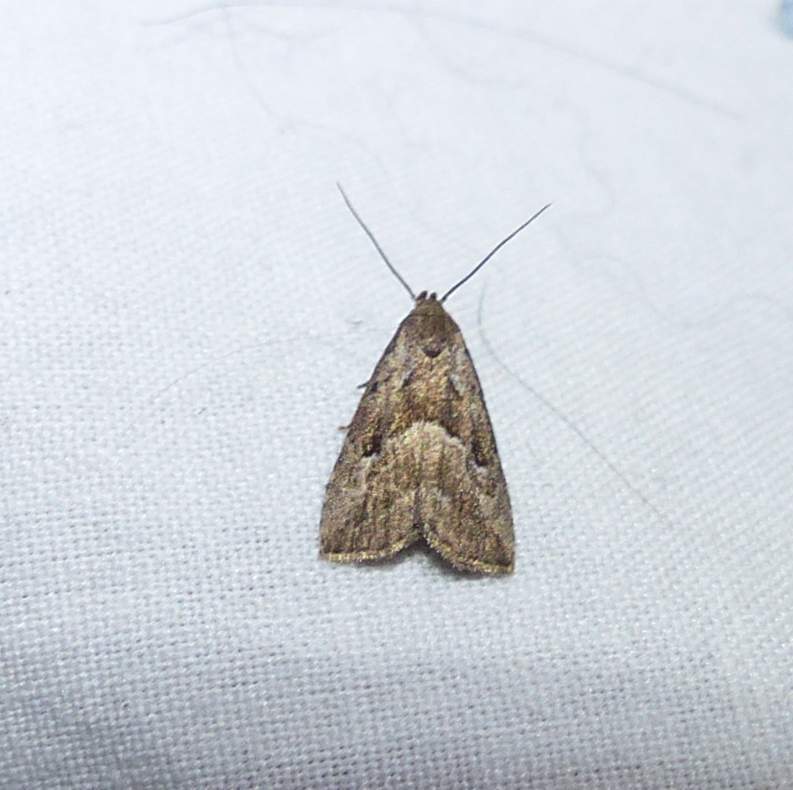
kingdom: Animalia
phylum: Arthropoda
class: Insecta
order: Lepidoptera
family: Erebidae
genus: Hypenodes
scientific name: Hypenodes caducus
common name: Large hypenodes moth
